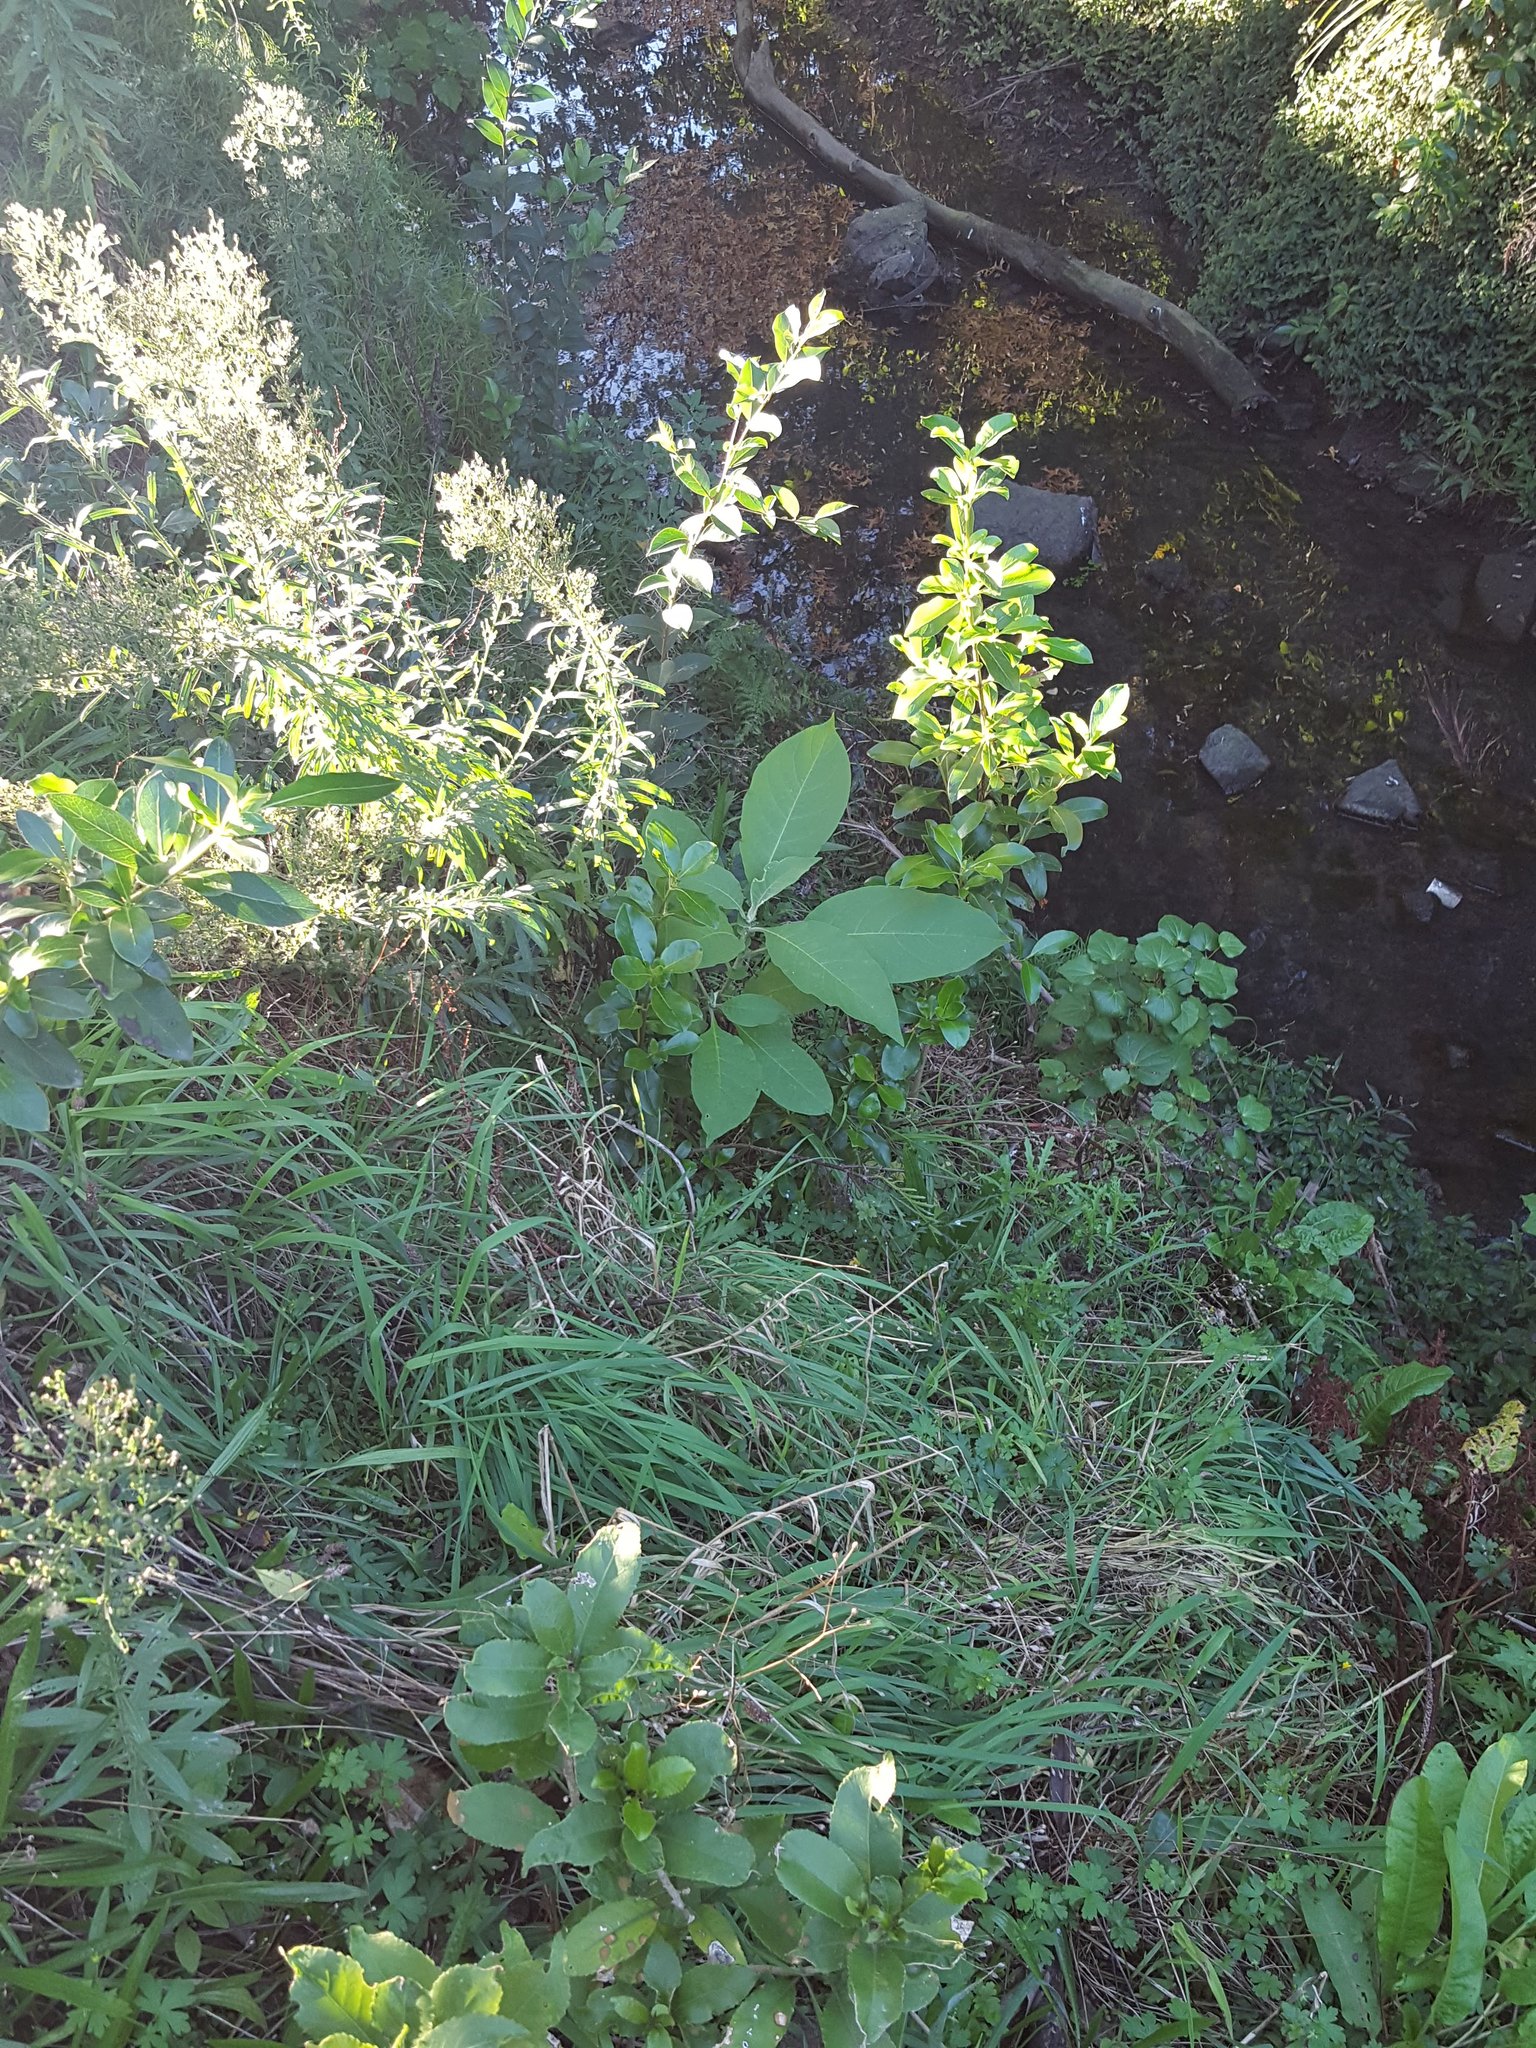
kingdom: Plantae
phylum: Tracheophyta
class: Magnoliopsida
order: Solanales
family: Solanaceae
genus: Solanum
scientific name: Solanum mauritianum
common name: Earleaf nightshade
